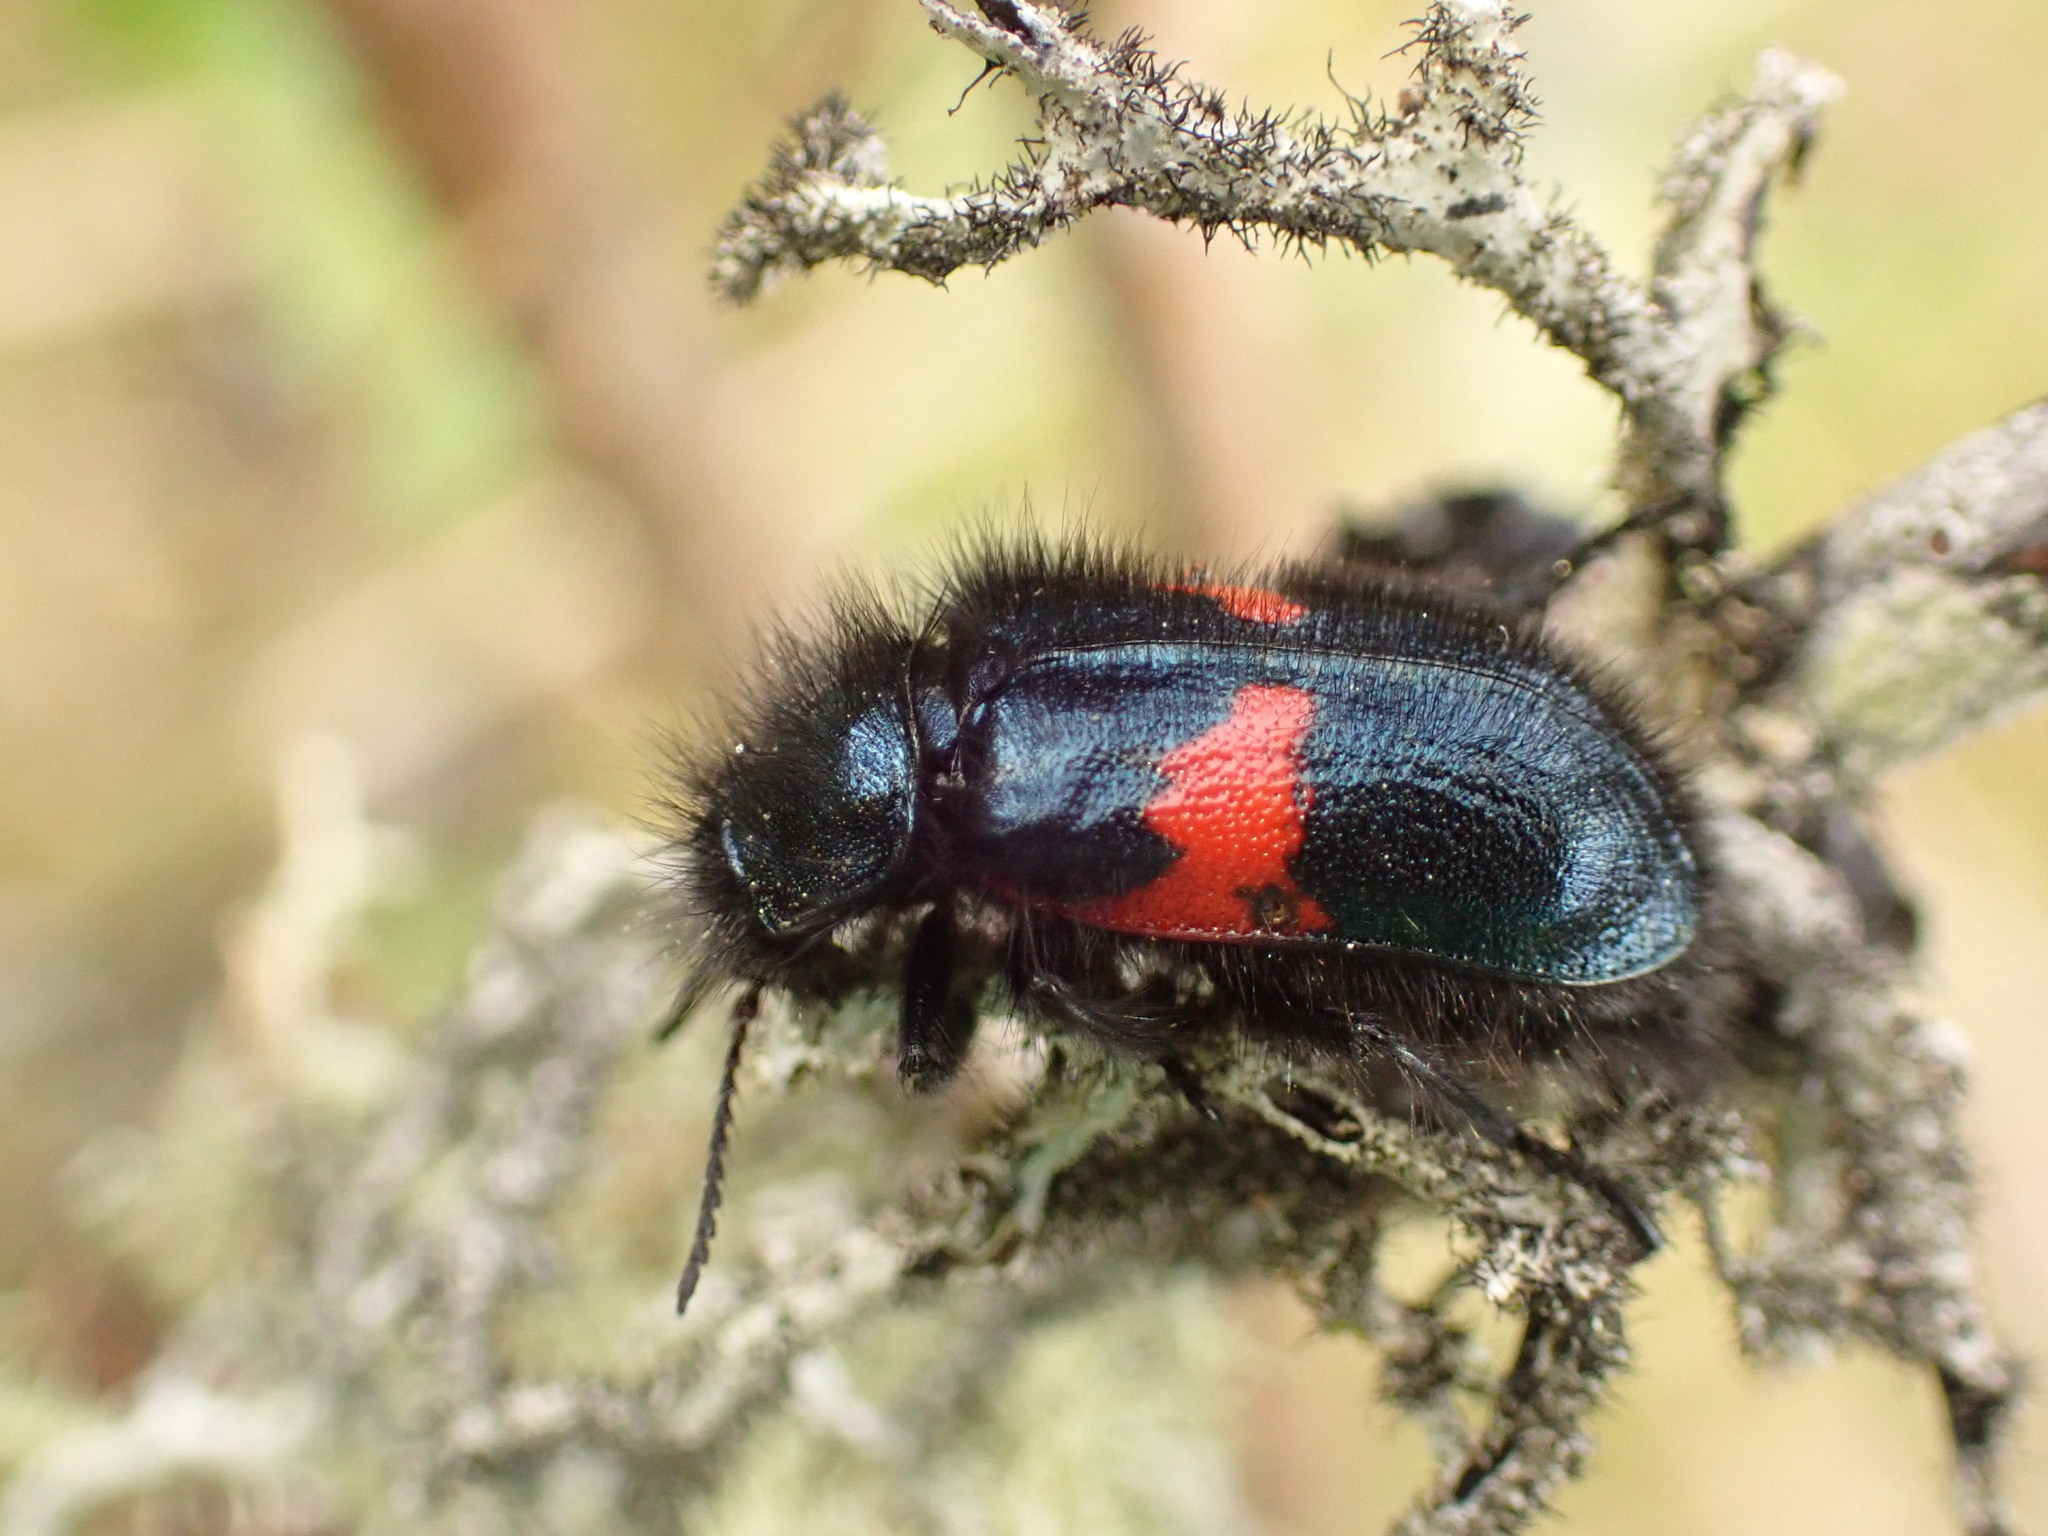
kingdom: Animalia
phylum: Arthropoda
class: Insecta
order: Coleoptera
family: Melyridae
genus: Astylus
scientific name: Astylus
